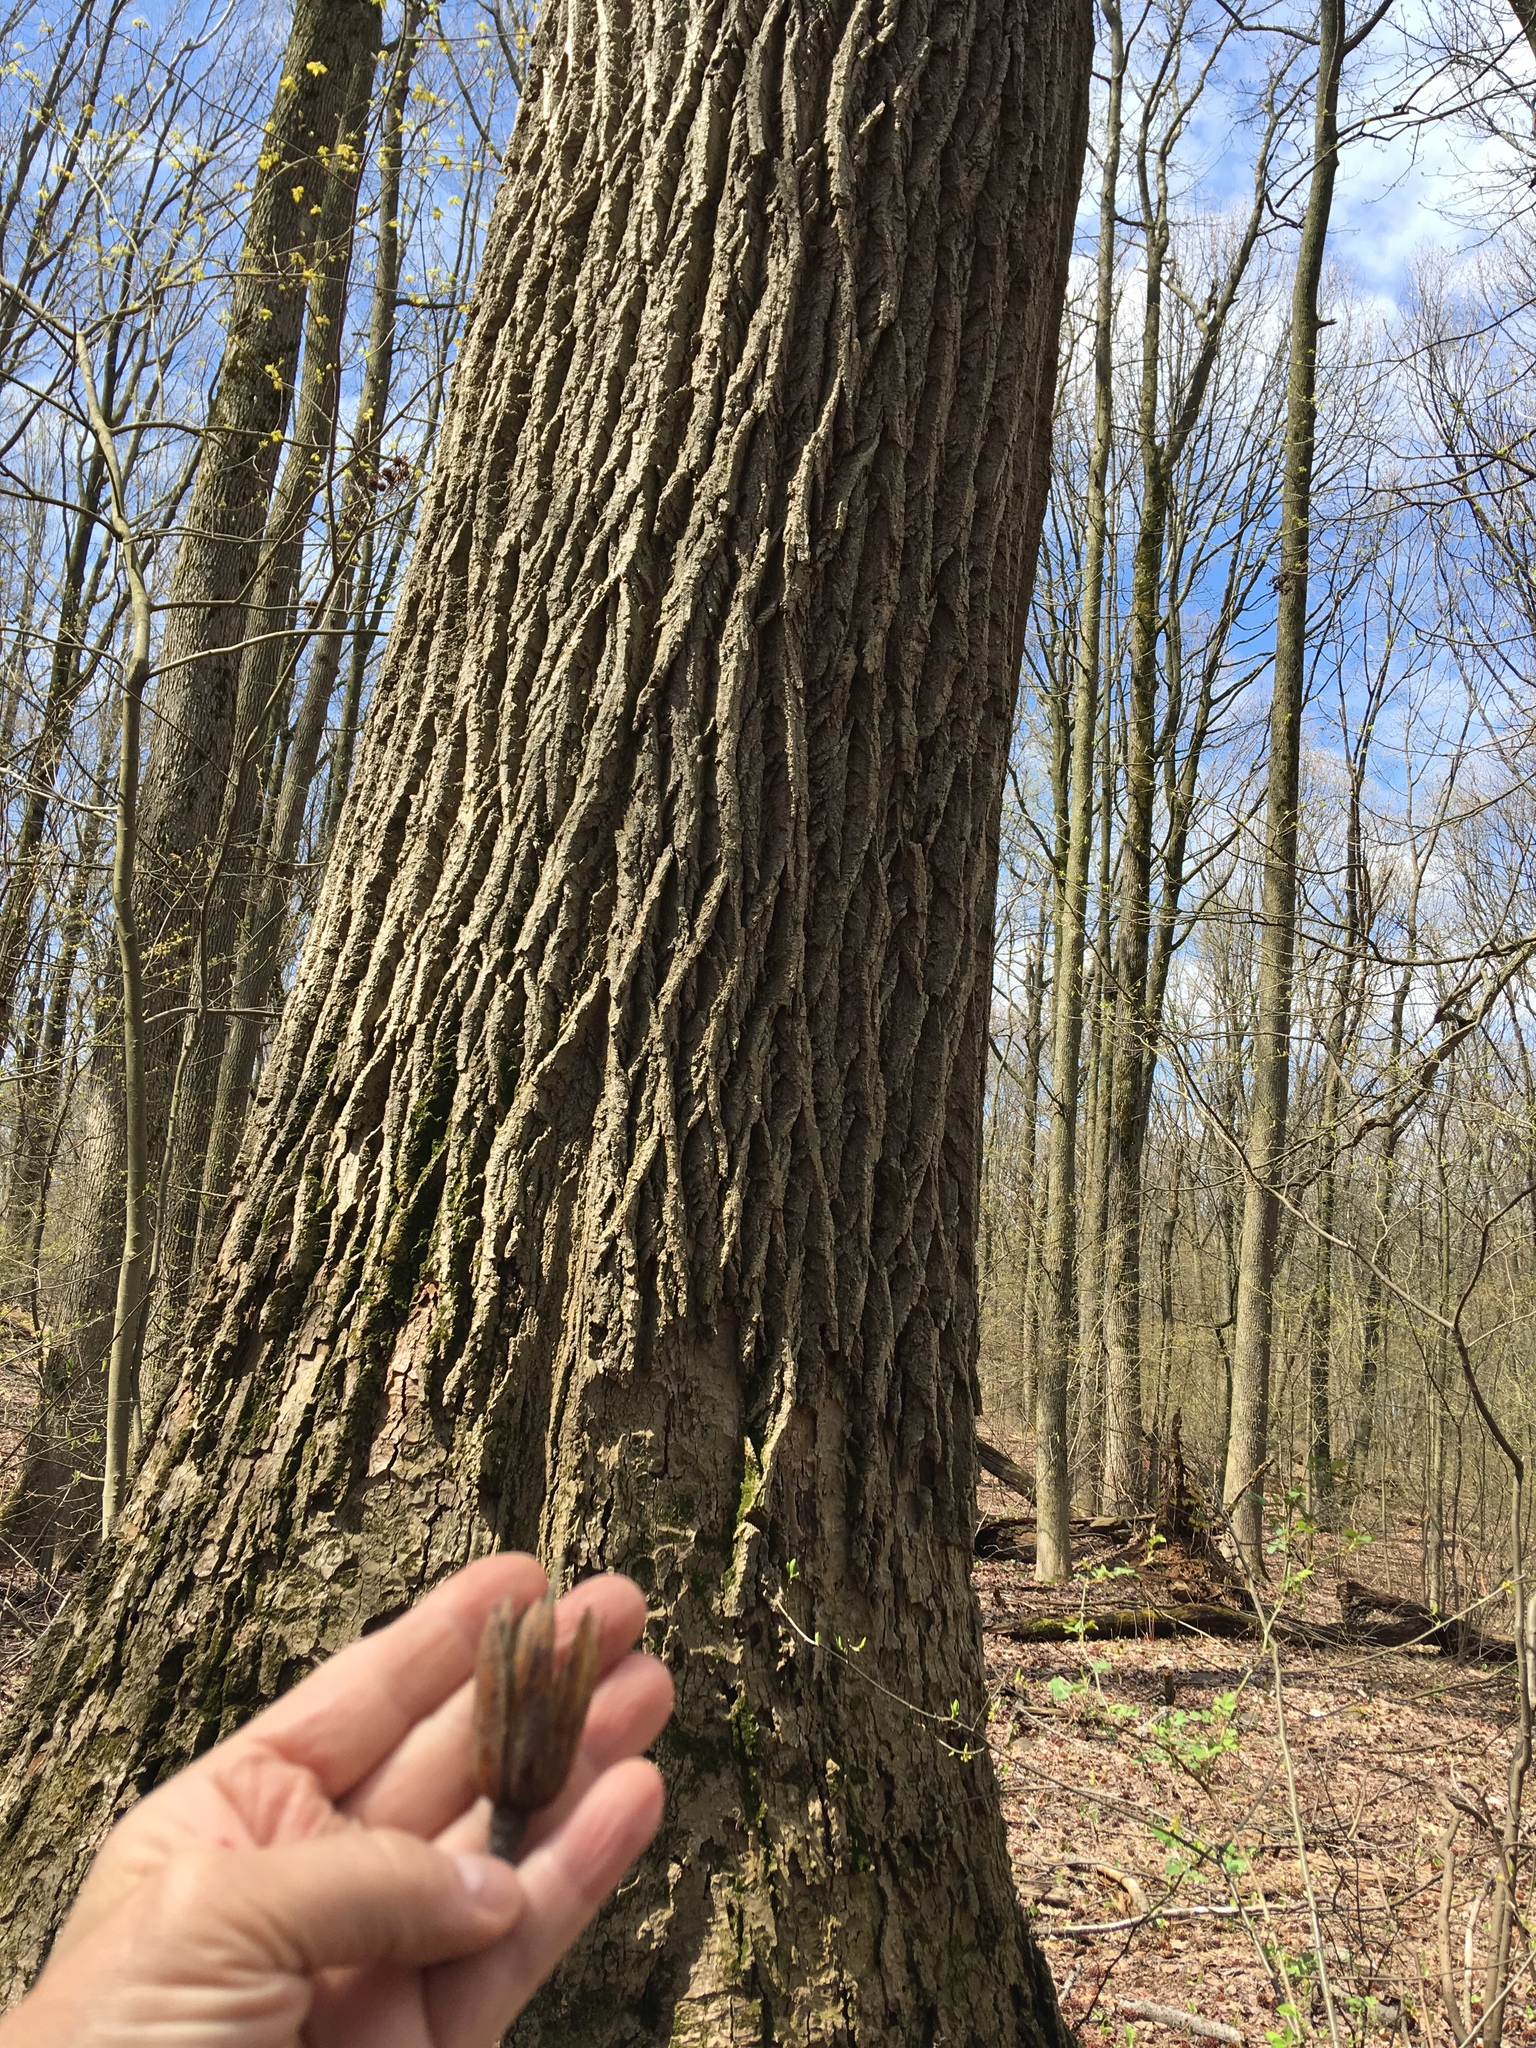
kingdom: Plantae
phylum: Tracheophyta
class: Magnoliopsida
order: Magnoliales
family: Magnoliaceae
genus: Liriodendron
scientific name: Liriodendron tulipifera
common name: Tulip tree
